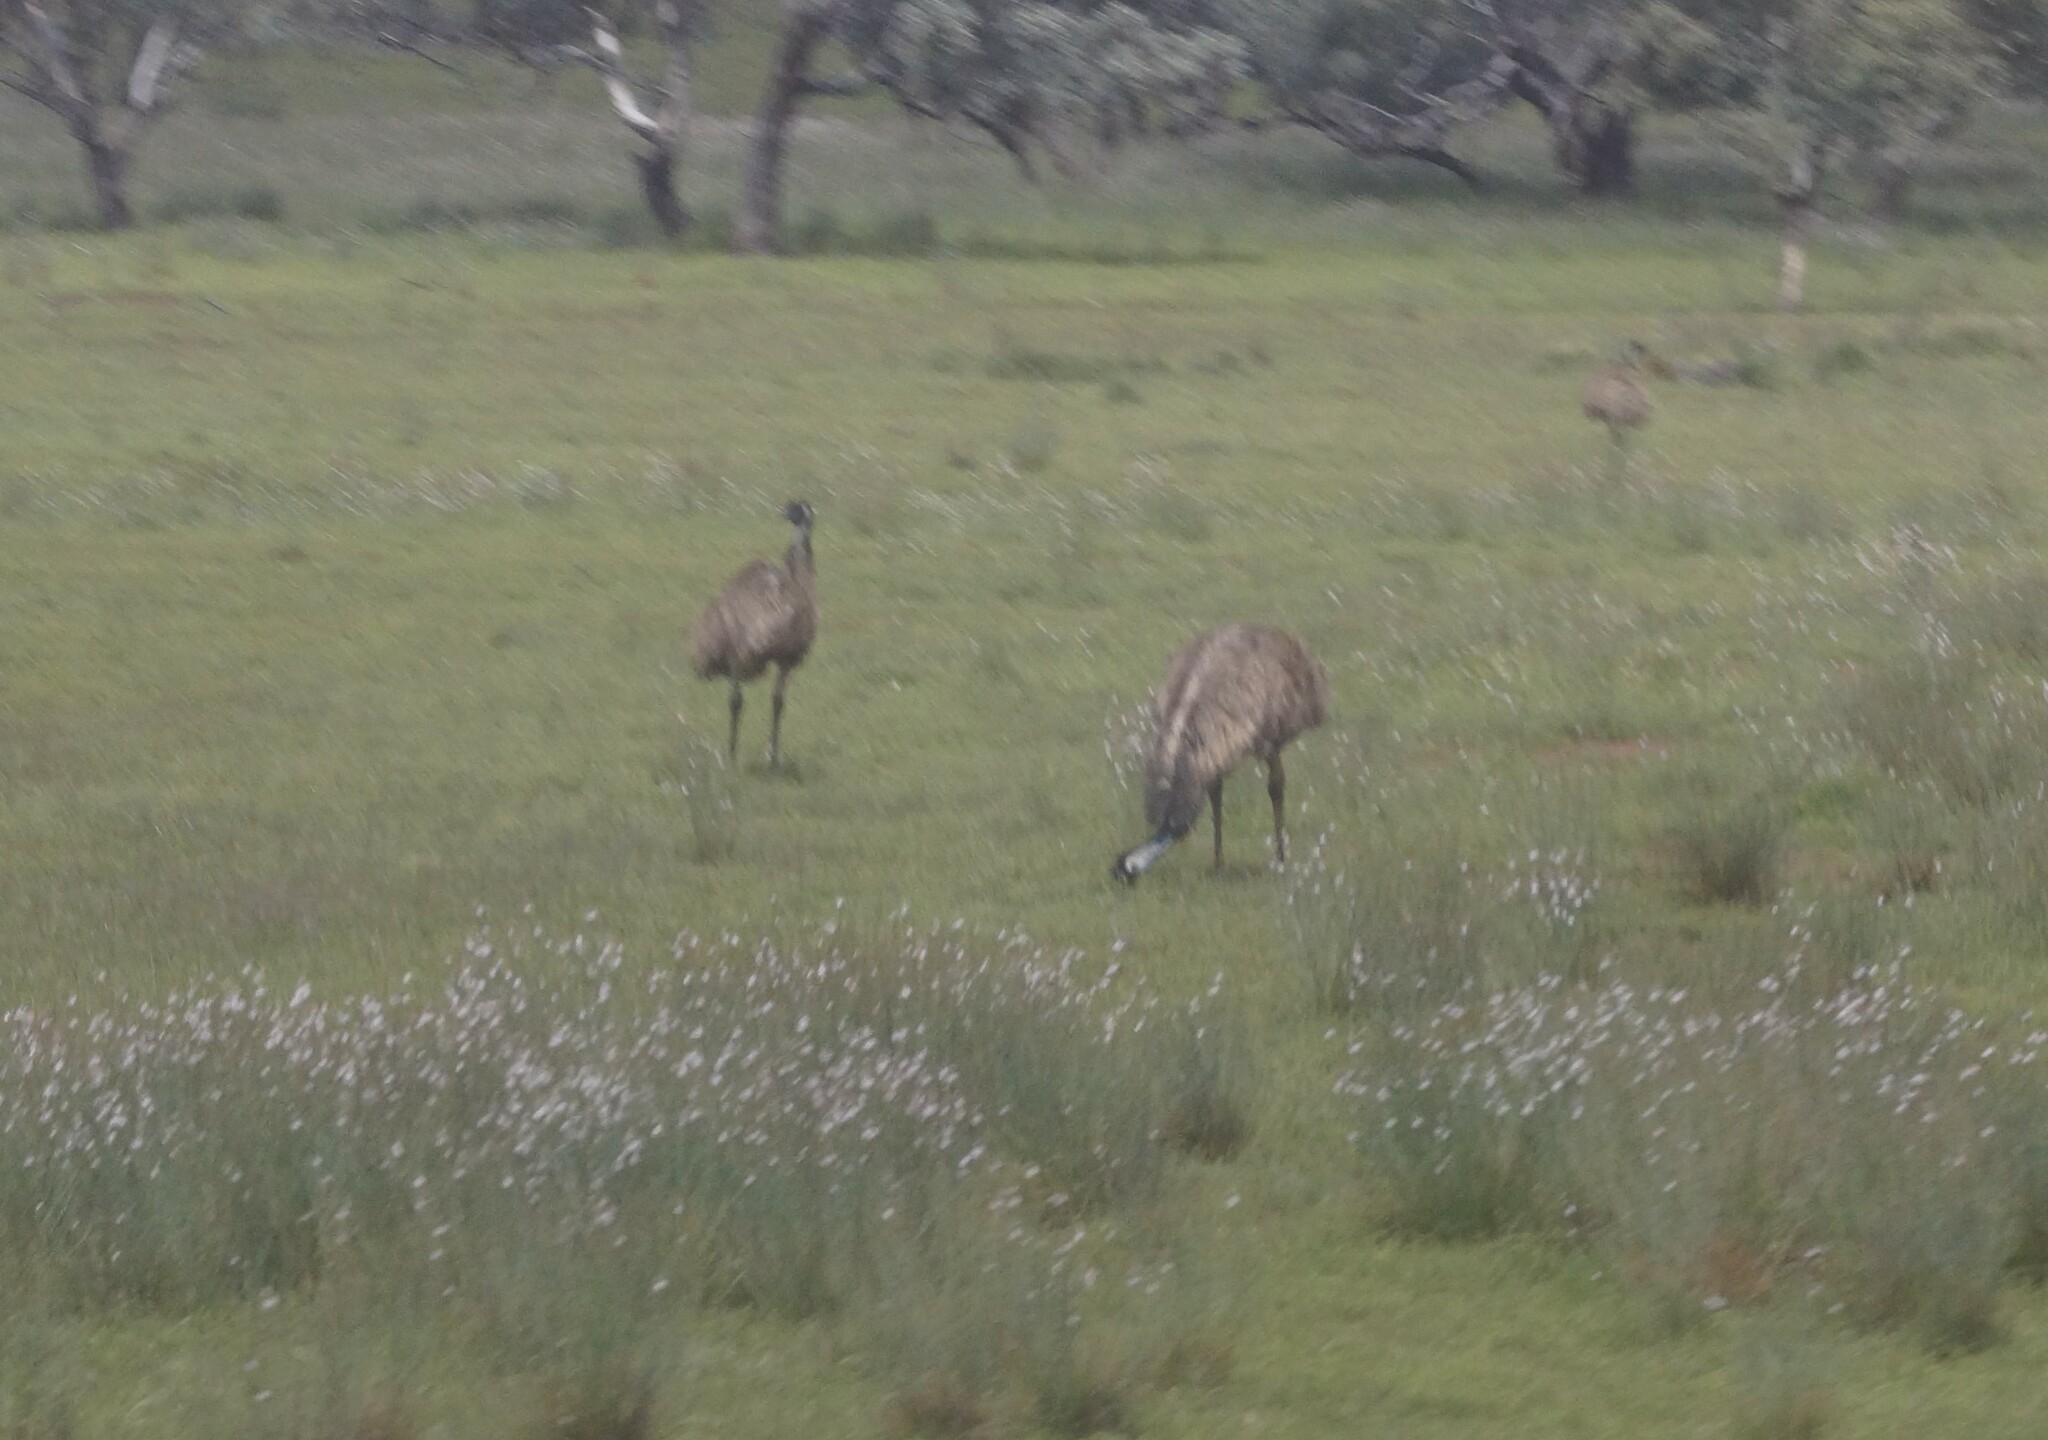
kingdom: Animalia
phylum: Chordata
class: Aves
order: Casuariiformes
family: Dromaiidae
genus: Dromaius
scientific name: Dromaius novaehollandiae
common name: Emu
